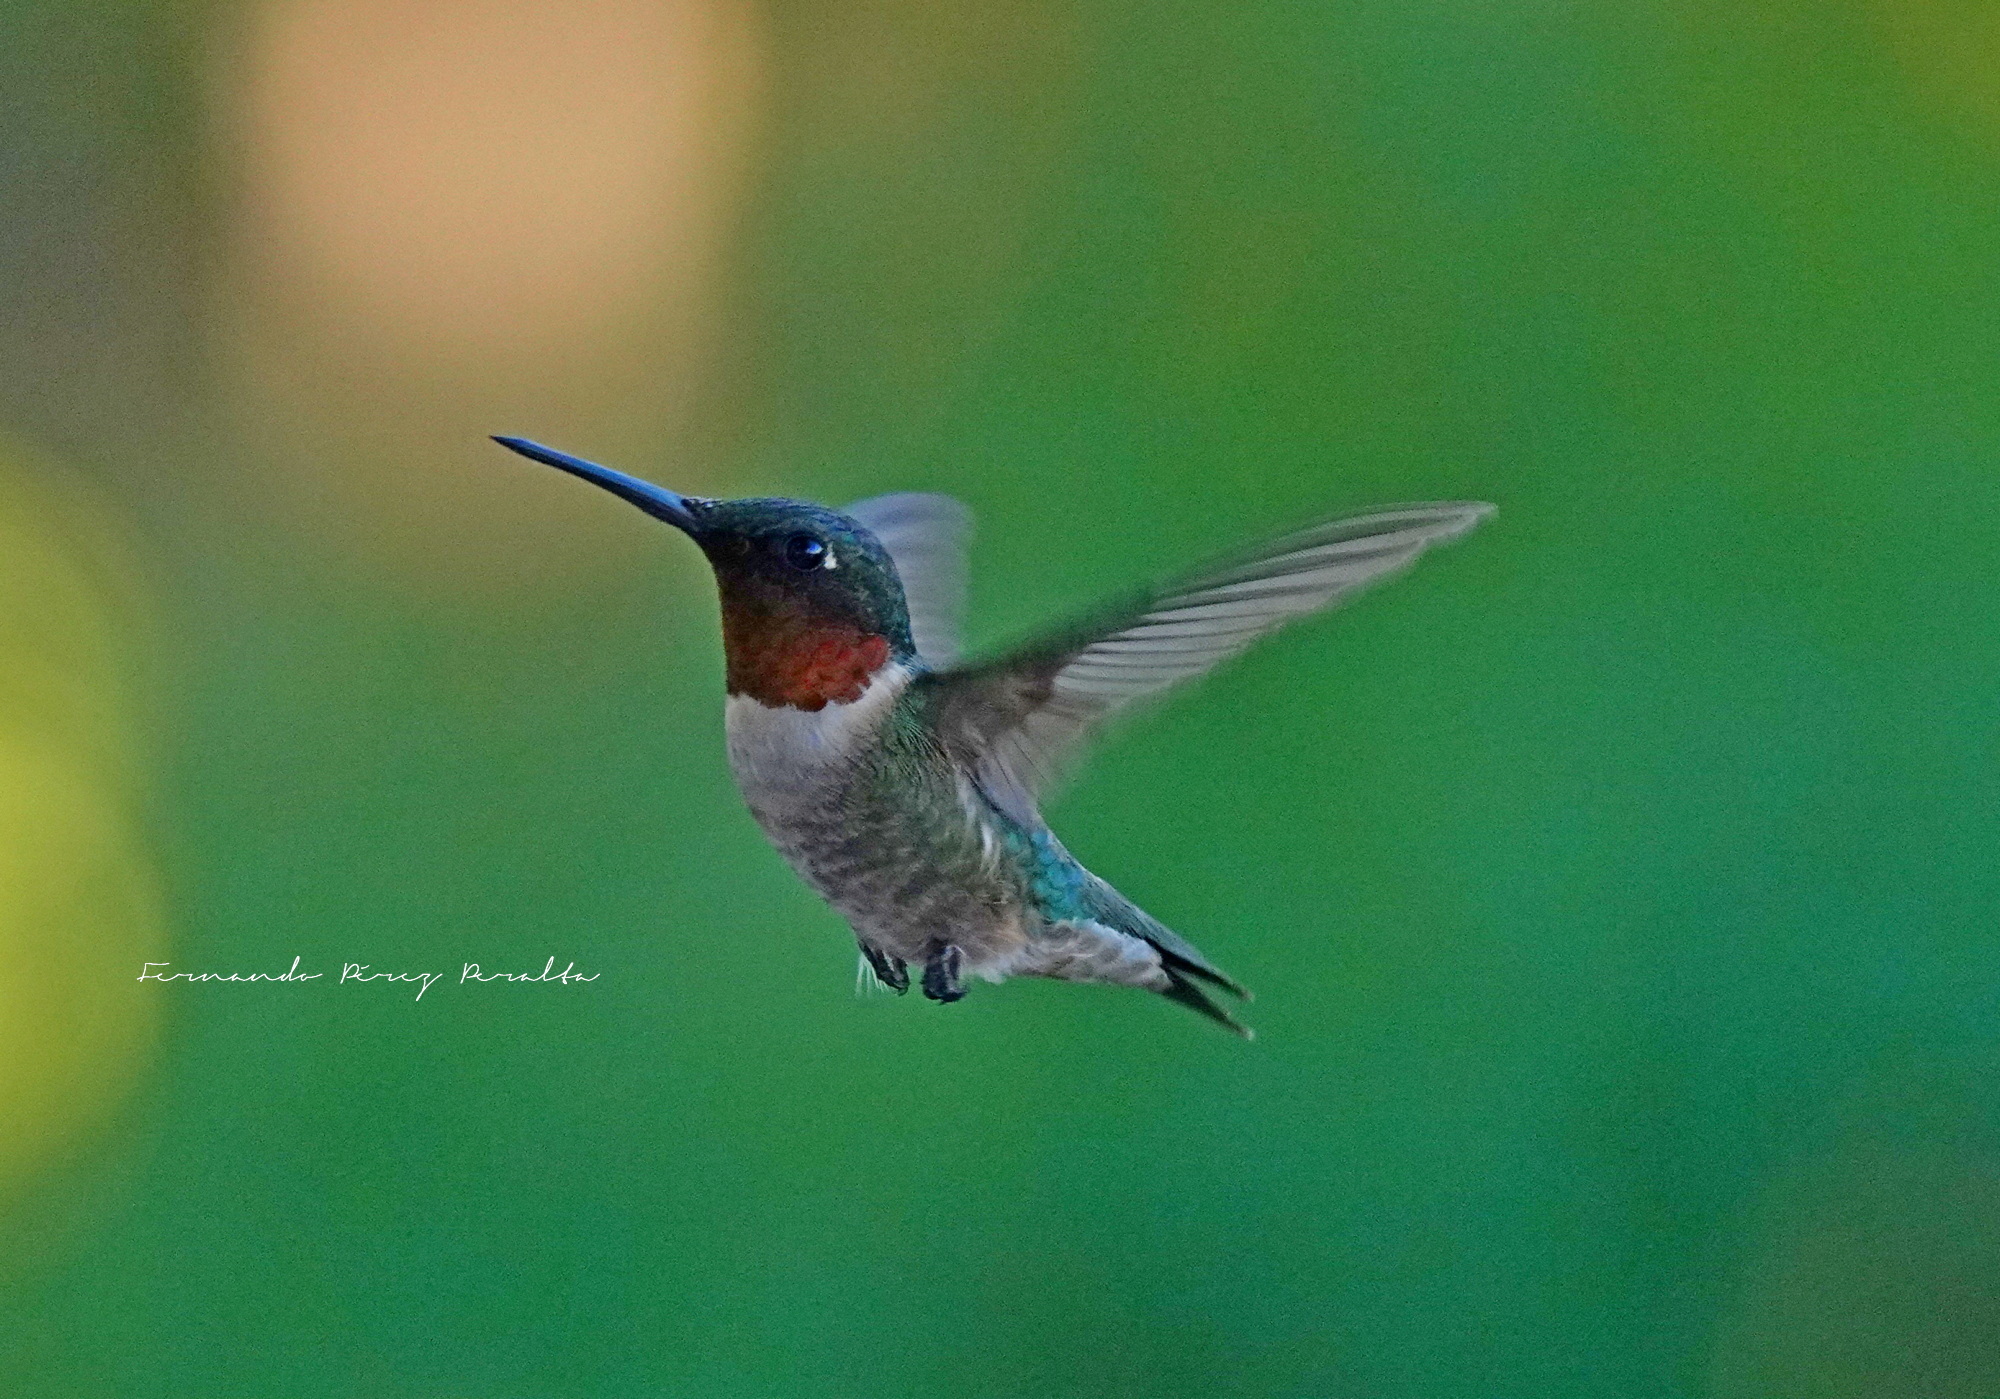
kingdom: Animalia
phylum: Chordata
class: Aves
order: Apodiformes
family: Trochilidae
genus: Archilochus
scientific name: Archilochus colubris
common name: Ruby-throated hummingbird
